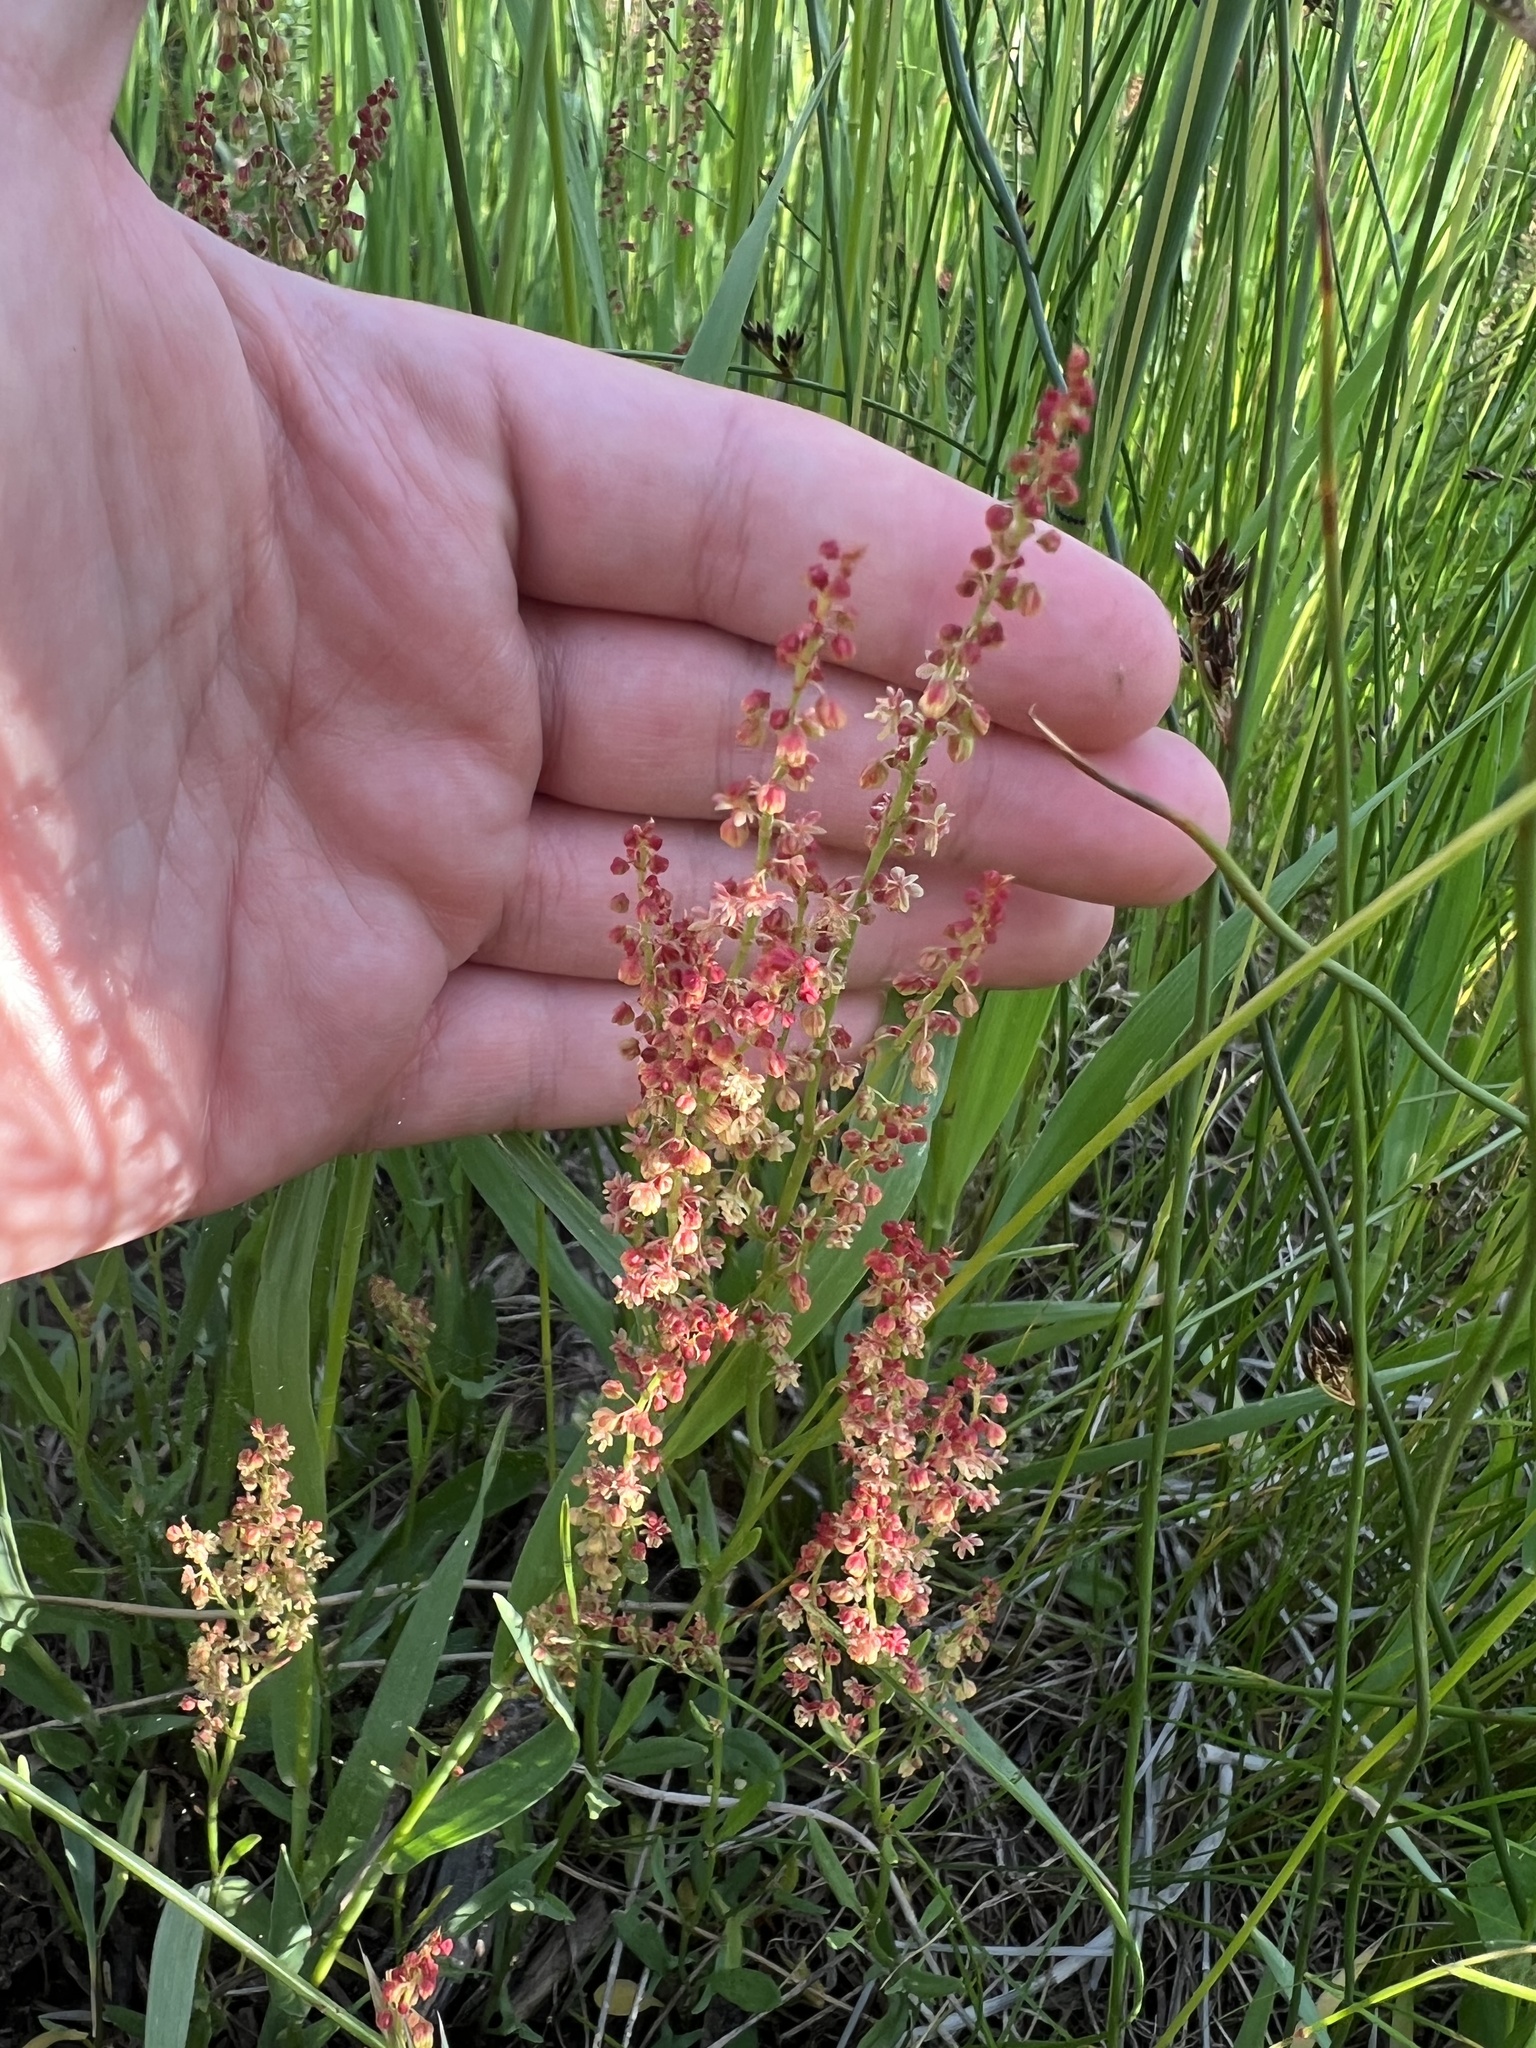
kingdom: Plantae
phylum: Tracheophyta
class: Magnoliopsida
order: Caryophyllales
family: Polygonaceae
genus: Rumex
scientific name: Rumex acetosella
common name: Common sheep sorrel
